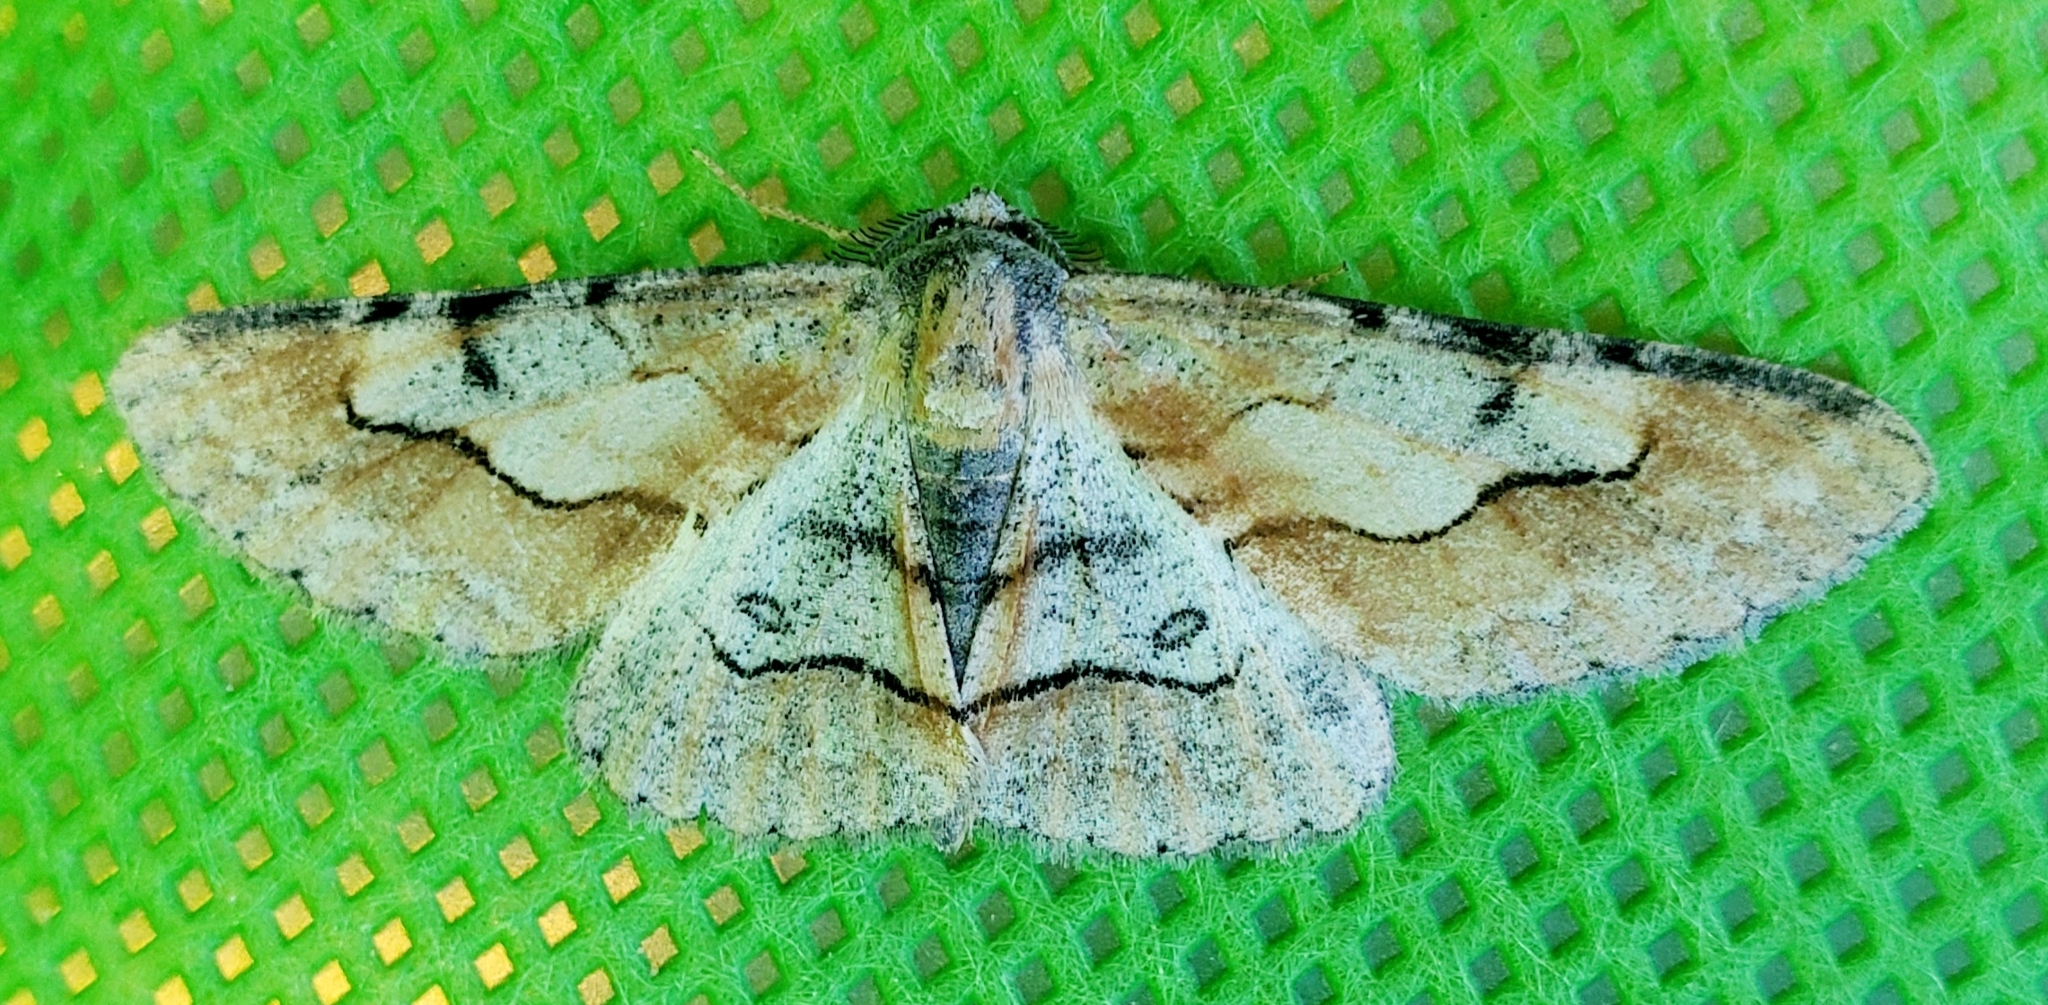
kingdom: Animalia
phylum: Arthropoda
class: Insecta
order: Lepidoptera
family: Geometridae
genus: Stenoporpia
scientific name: Stenoporpia mcdunnoughi
